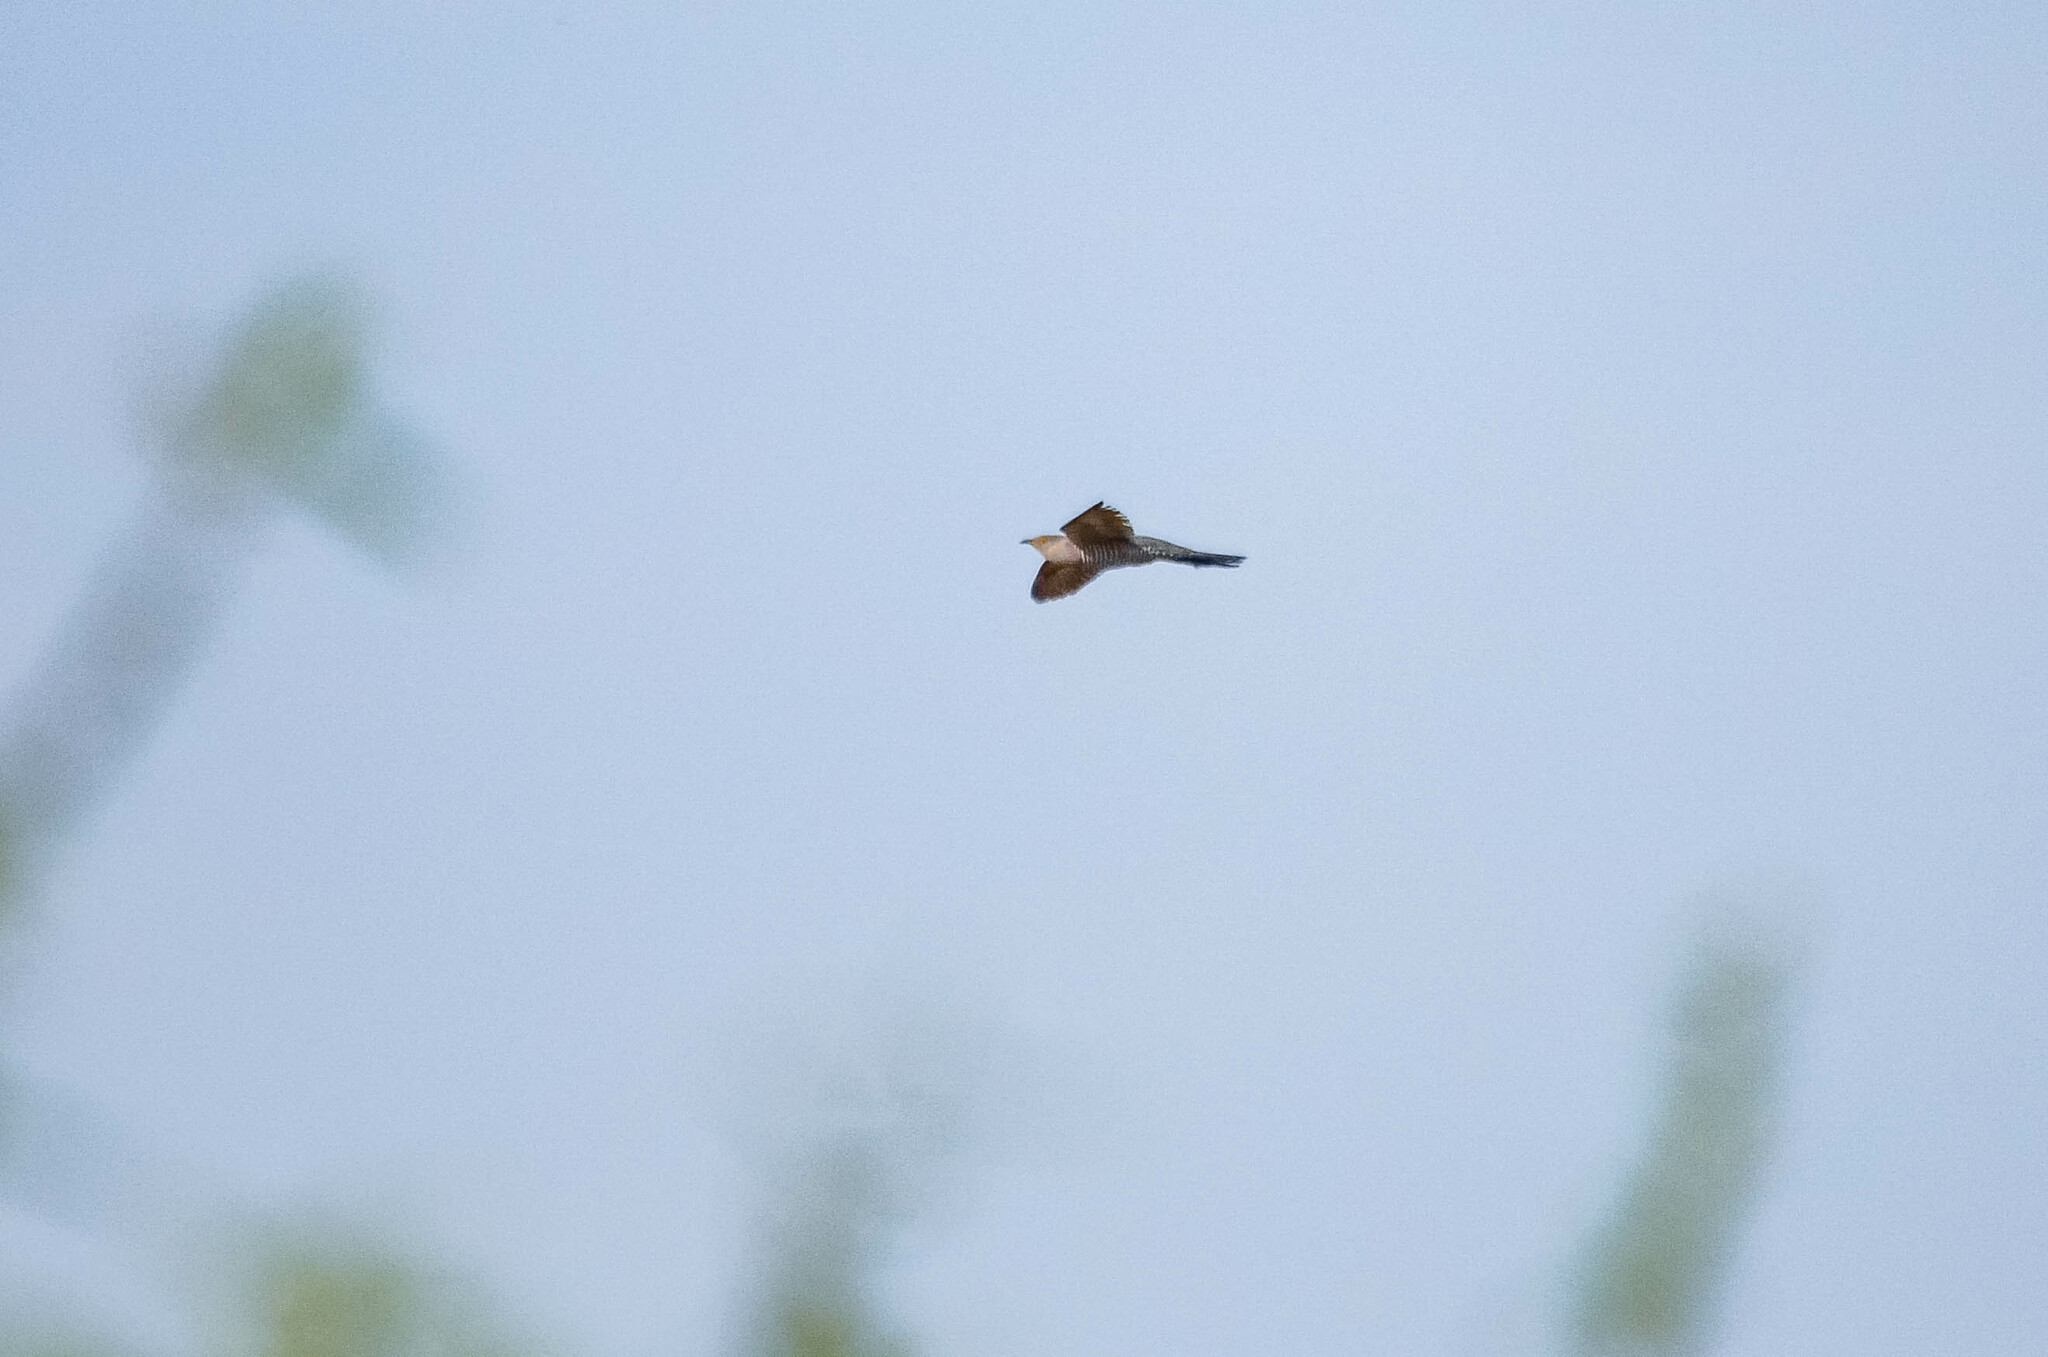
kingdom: Animalia
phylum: Chordata
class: Aves
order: Cuculiformes
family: Cuculidae
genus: Cuculus
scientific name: Cuculus canorus
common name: Common cuckoo
